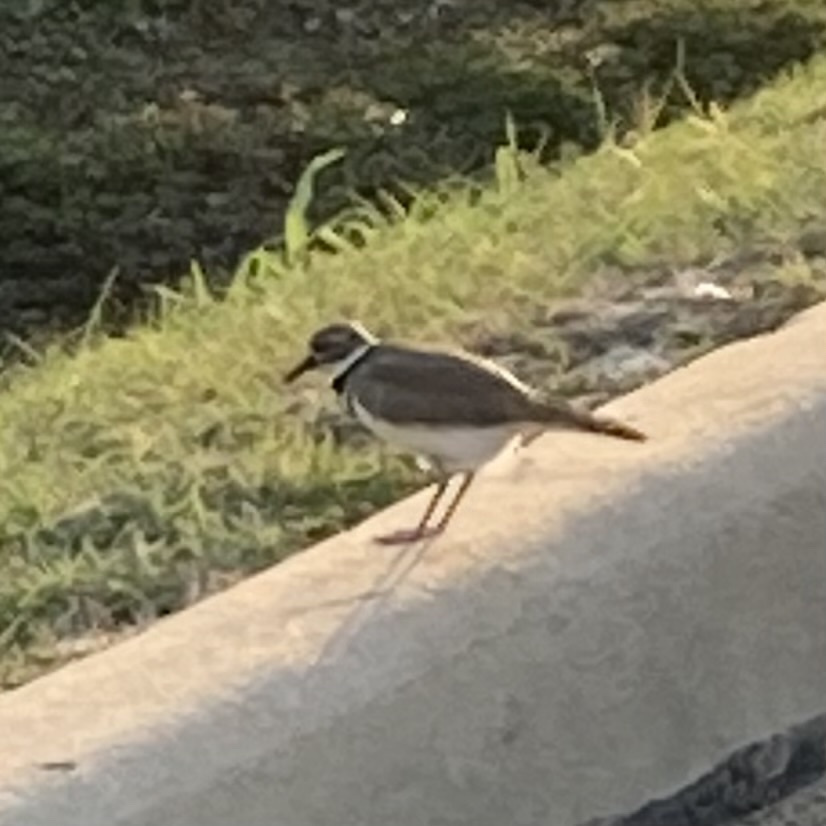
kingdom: Animalia
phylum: Chordata
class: Aves
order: Charadriiformes
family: Charadriidae
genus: Charadrius
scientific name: Charadrius vociferus
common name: Killdeer
